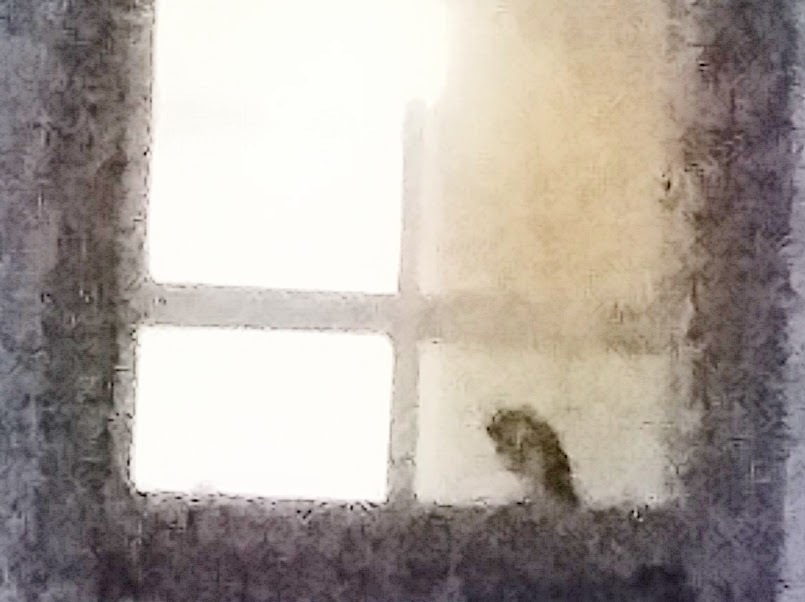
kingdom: Animalia
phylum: Chordata
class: Aves
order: Strigiformes
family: Tytonidae
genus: Tyto
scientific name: Tyto alba
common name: Barn owl
